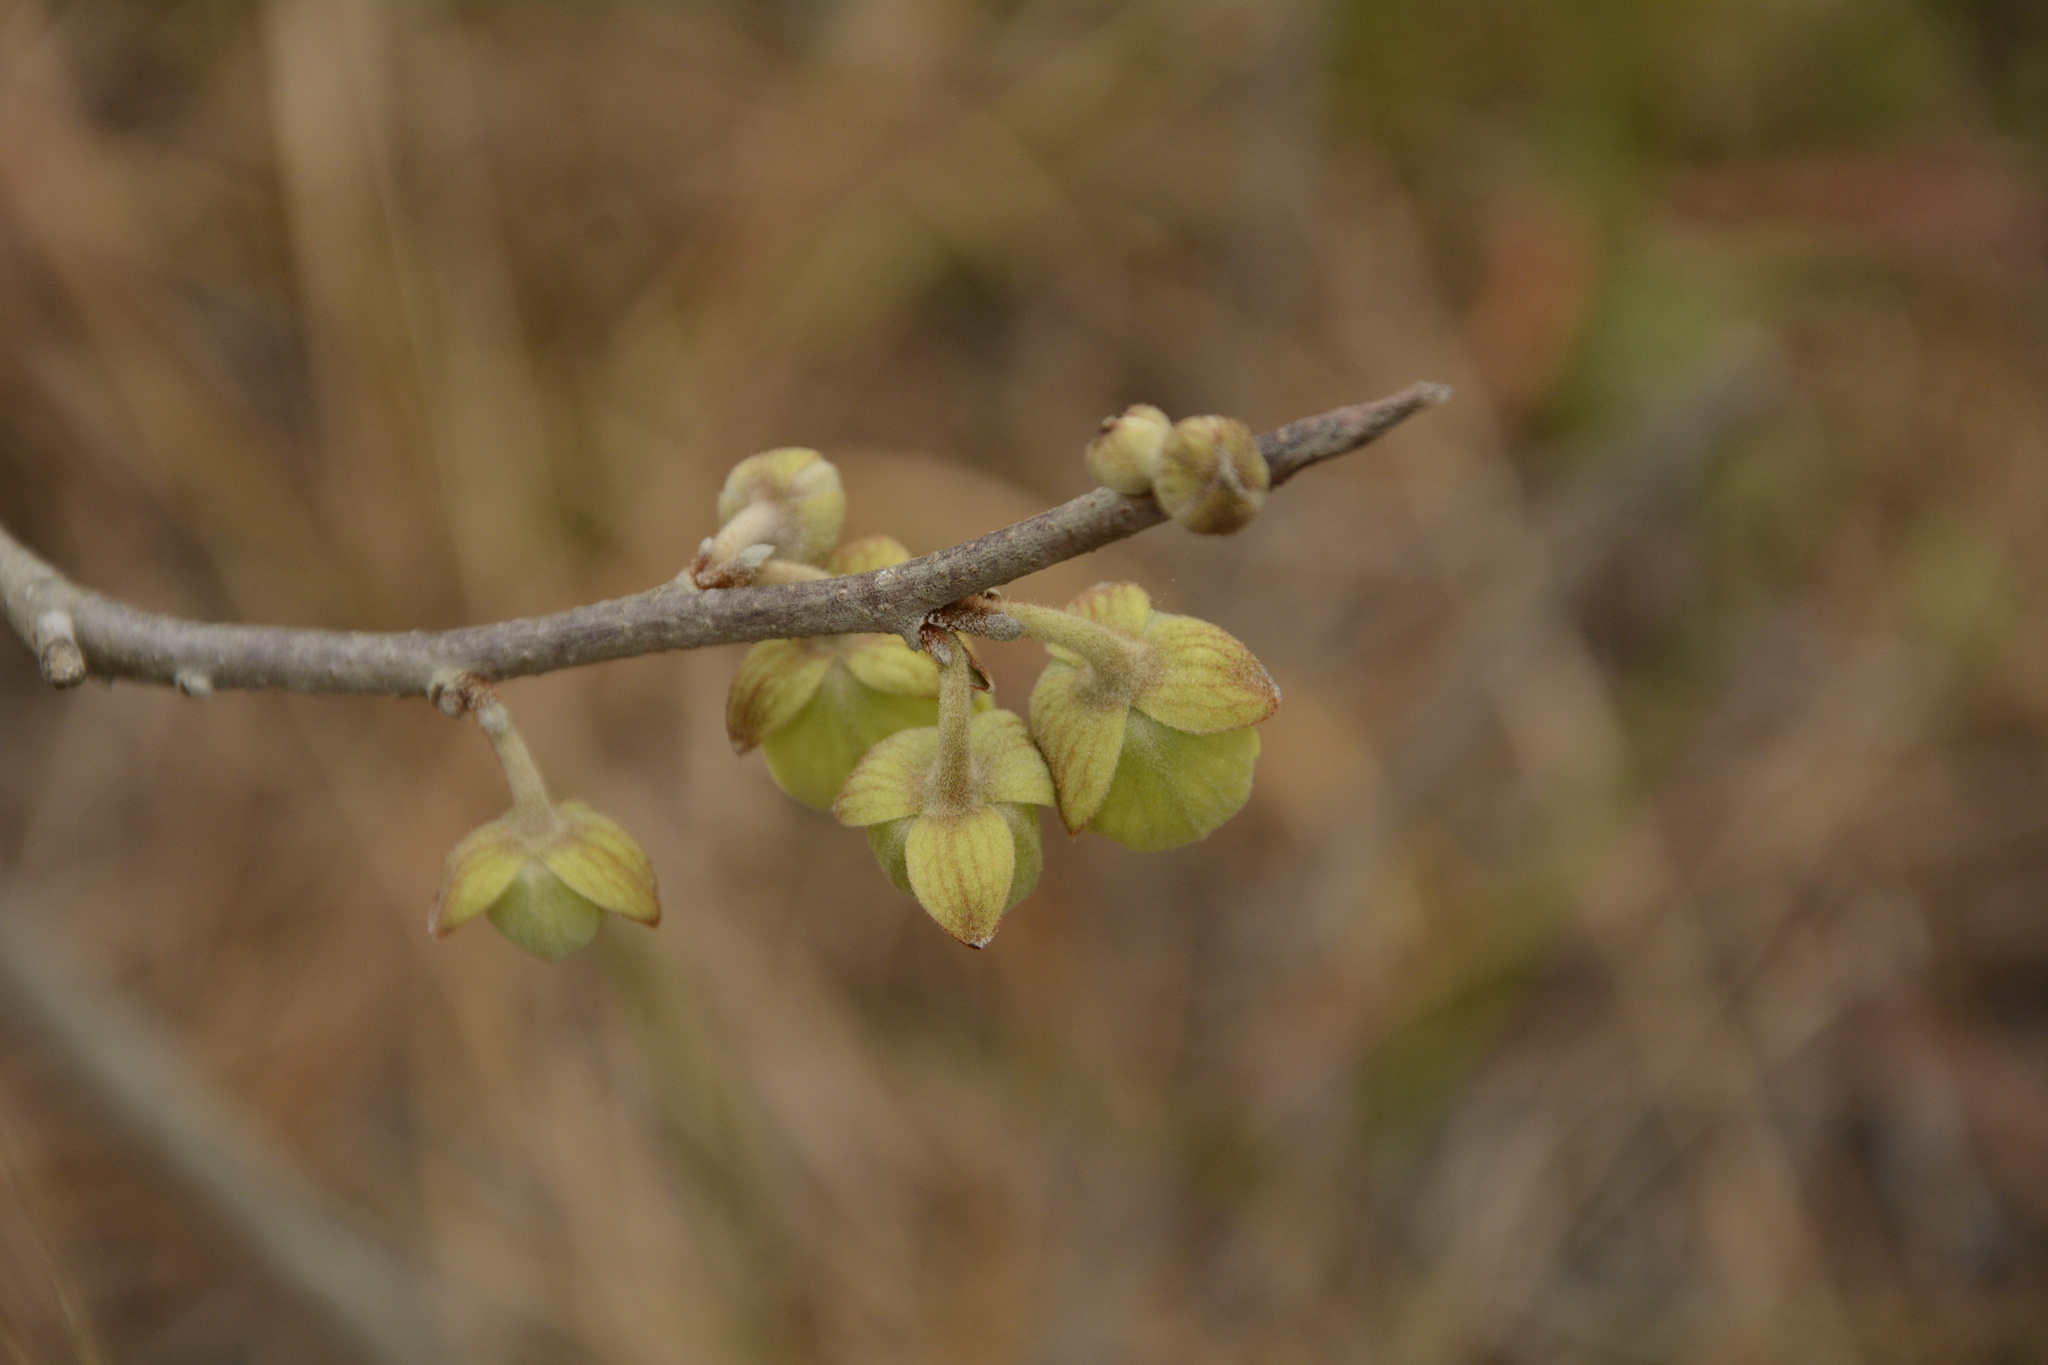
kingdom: Plantae
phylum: Tracheophyta
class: Magnoliopsida
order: Magnoliales
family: Annonaceae
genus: Asimina
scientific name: Asimina speciosa
